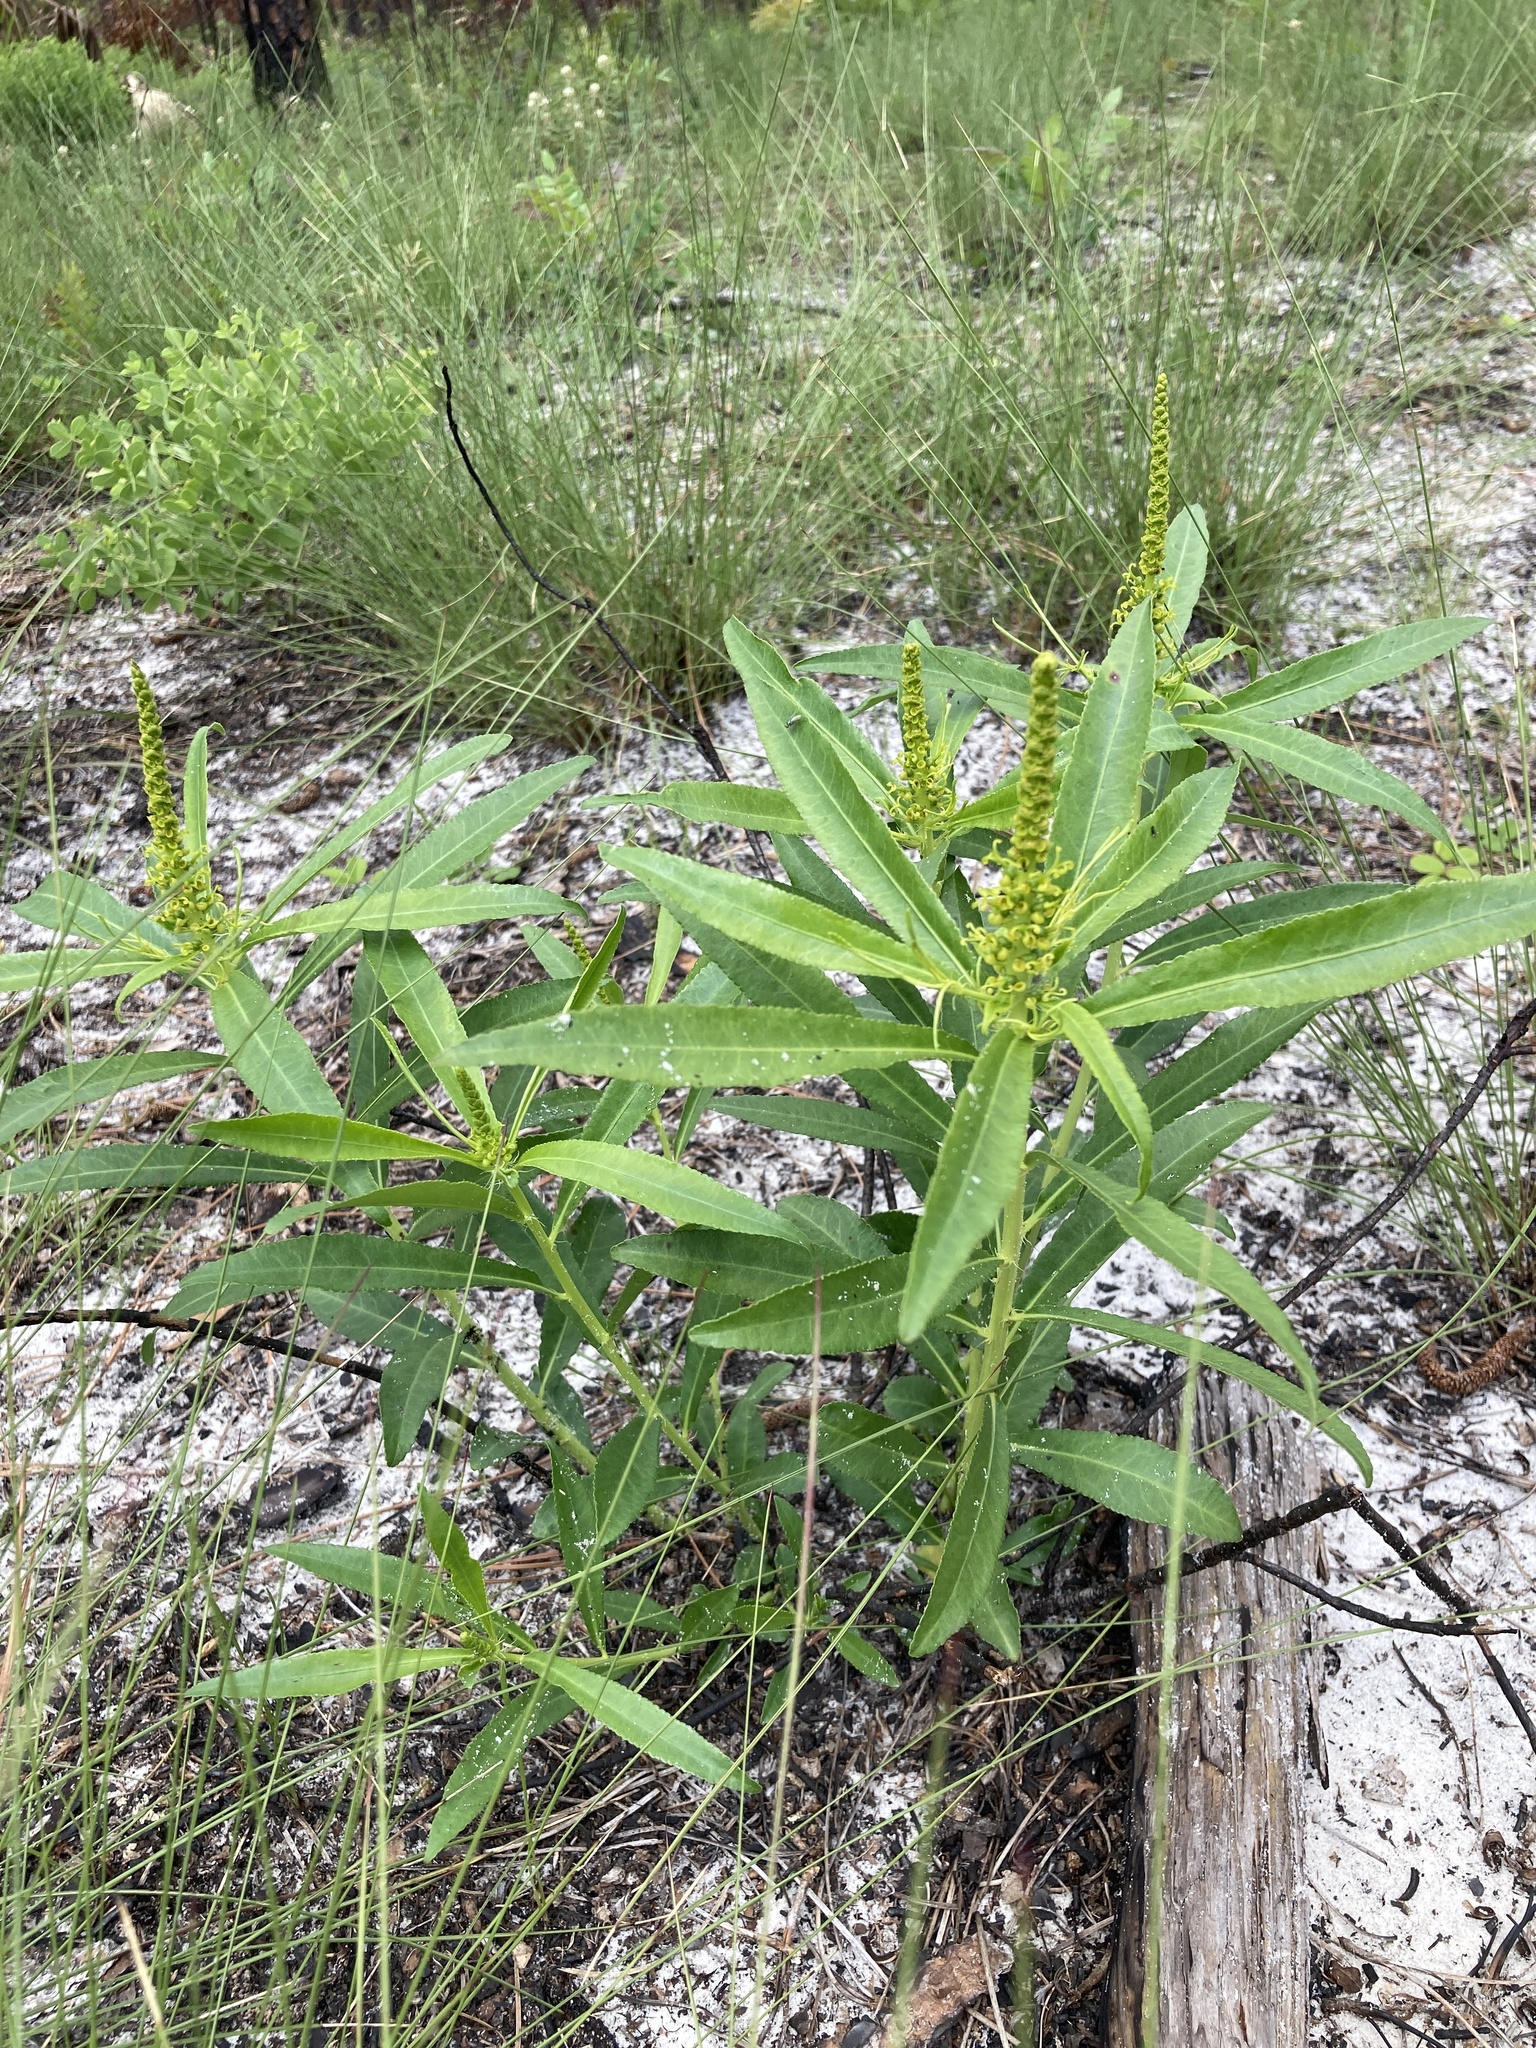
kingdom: Plantae
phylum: Tracheophyta
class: Magnoliopsida
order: Malpighiales
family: Euphorbiaceae
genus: Stillingia
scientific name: Stillingia sylvatica
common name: Queen's-delight
